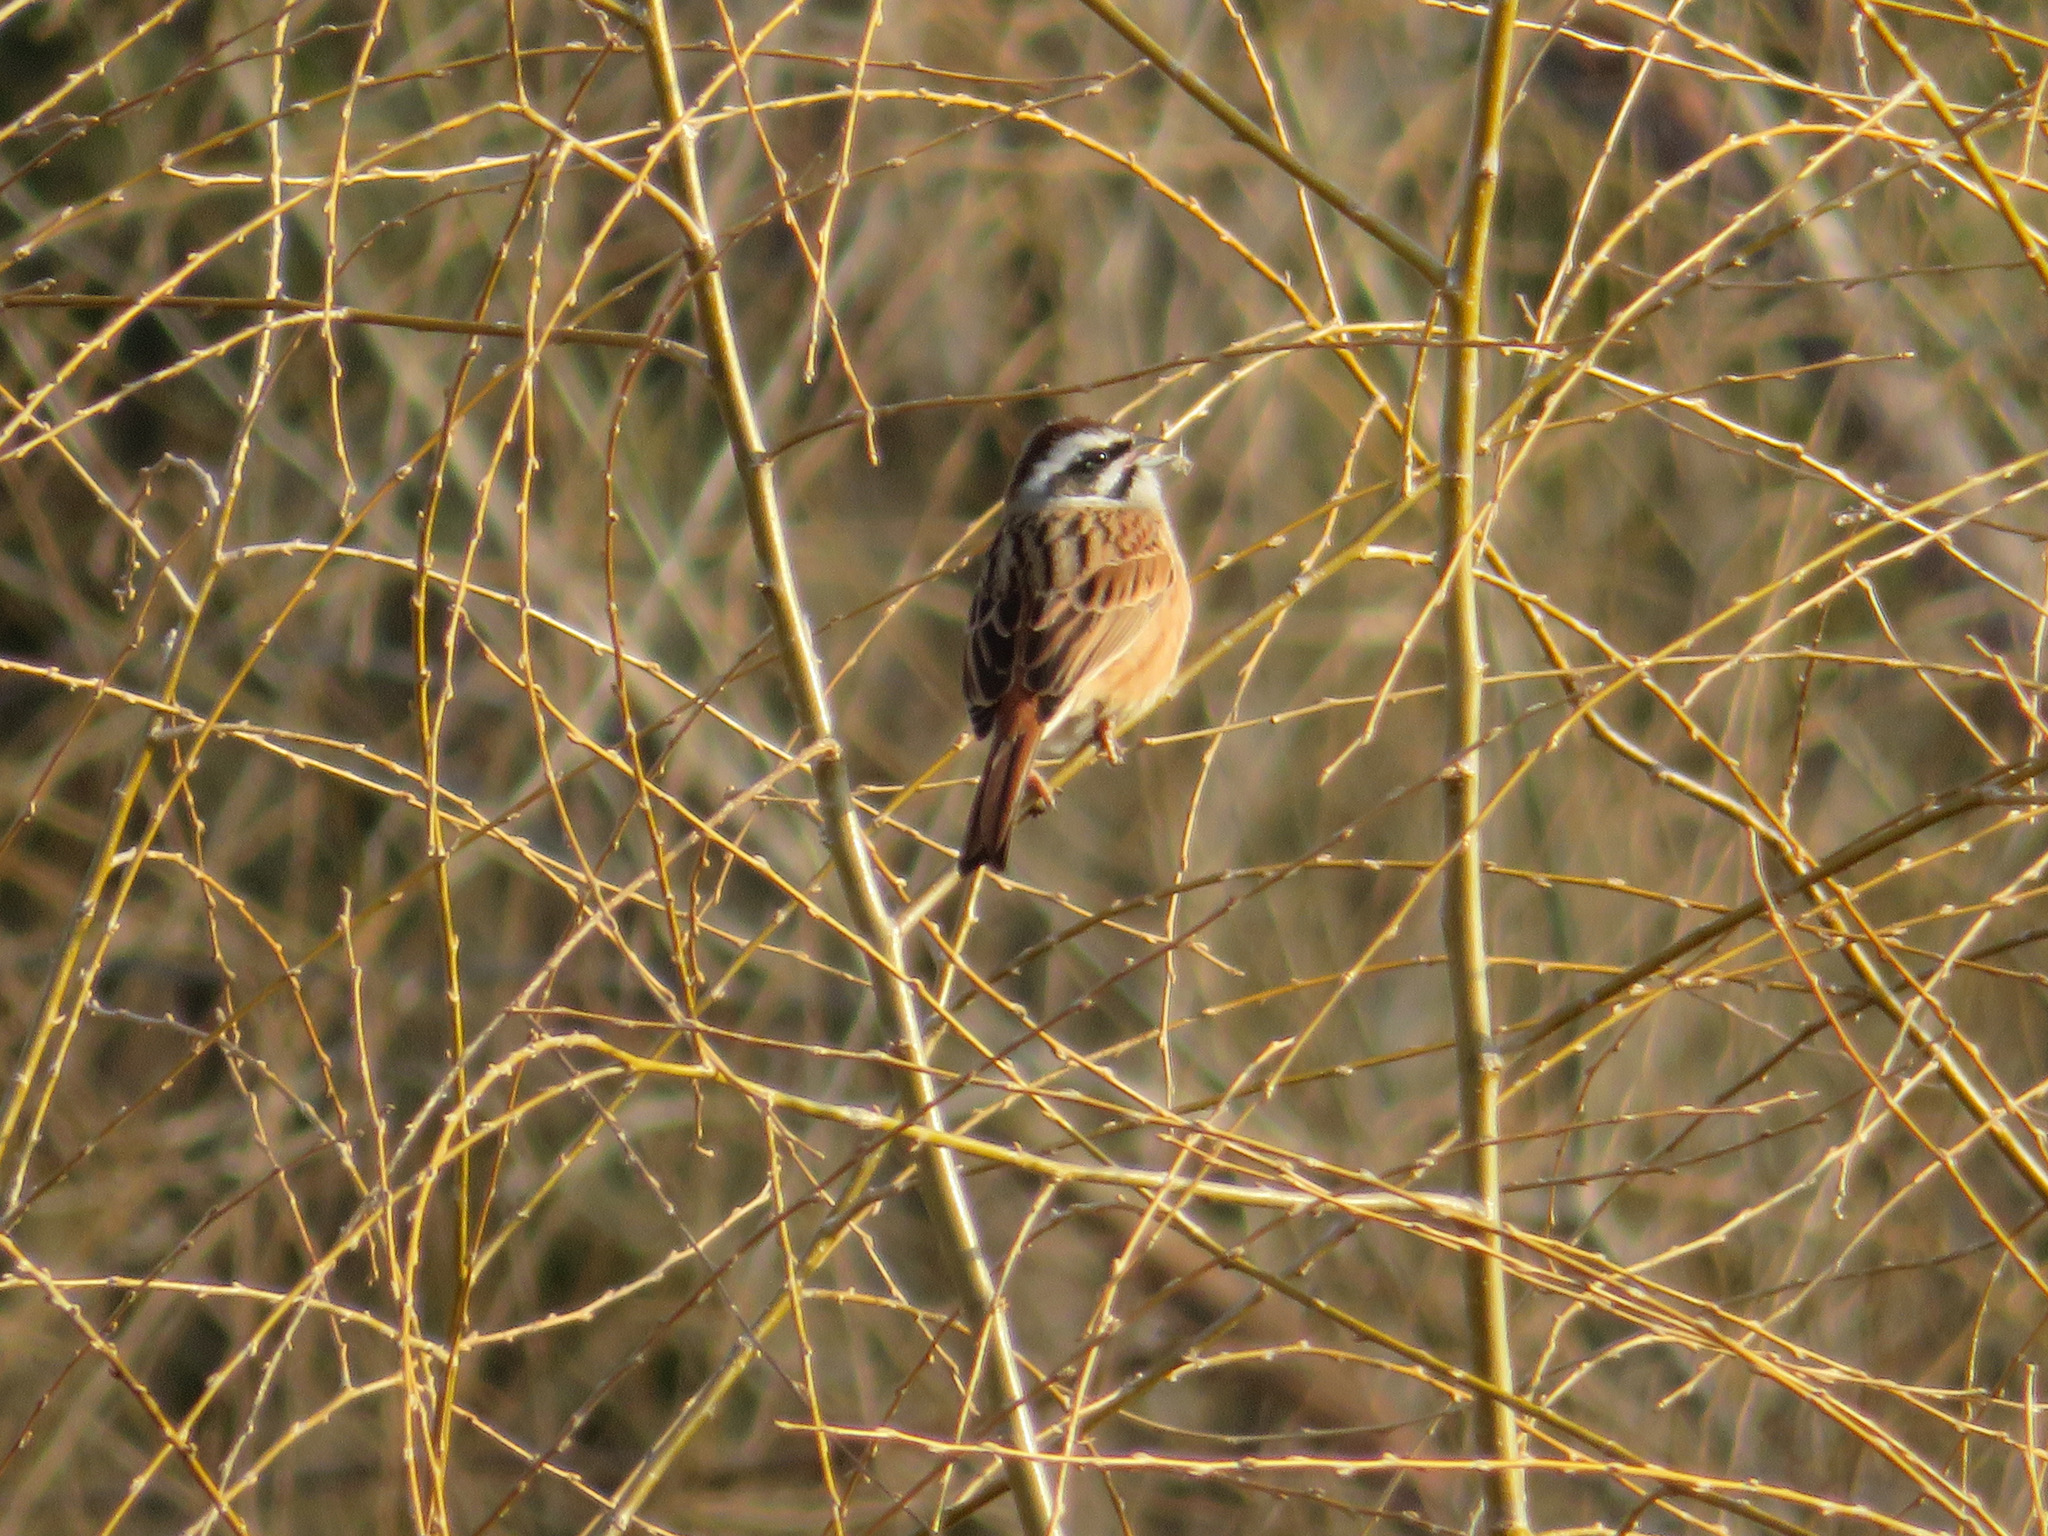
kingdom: Animalia
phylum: Chordata
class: Aves
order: Passeriformes
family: Emberizidae
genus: Emberiza
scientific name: Emberiza cioides
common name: Meadow bunting
